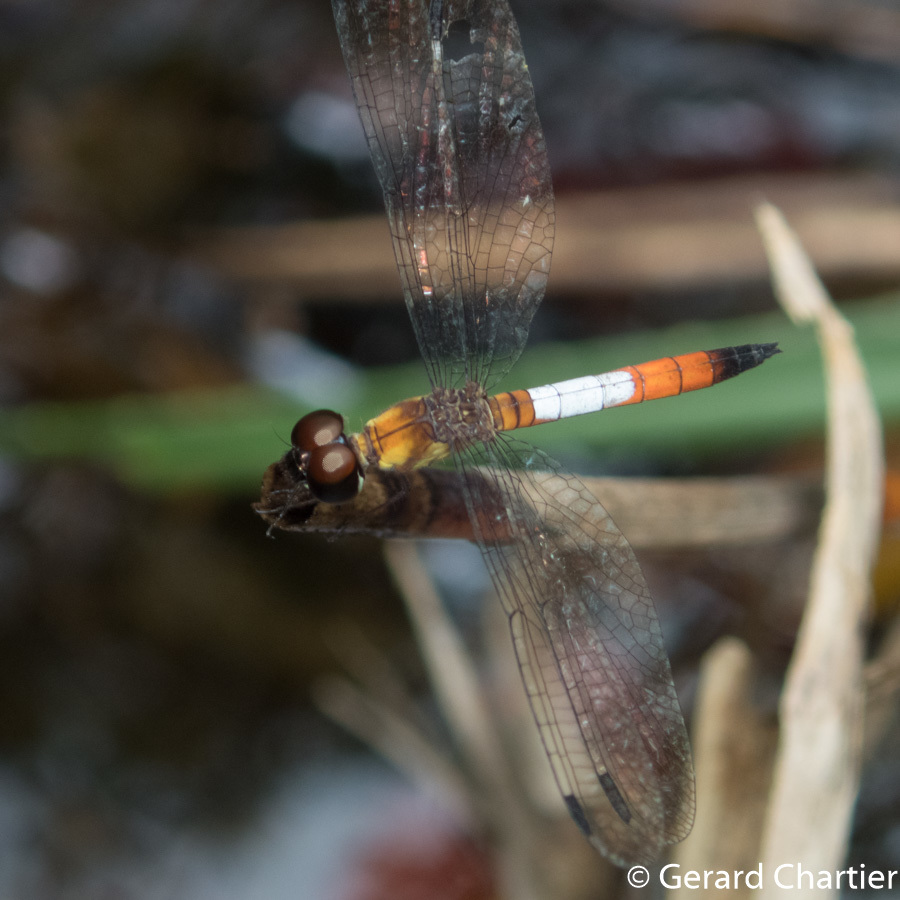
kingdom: Animalia
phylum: Arthropoda
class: Insecta
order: Odonata
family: Libellulidae
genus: Brachygonia
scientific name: Brachygonia oculata
